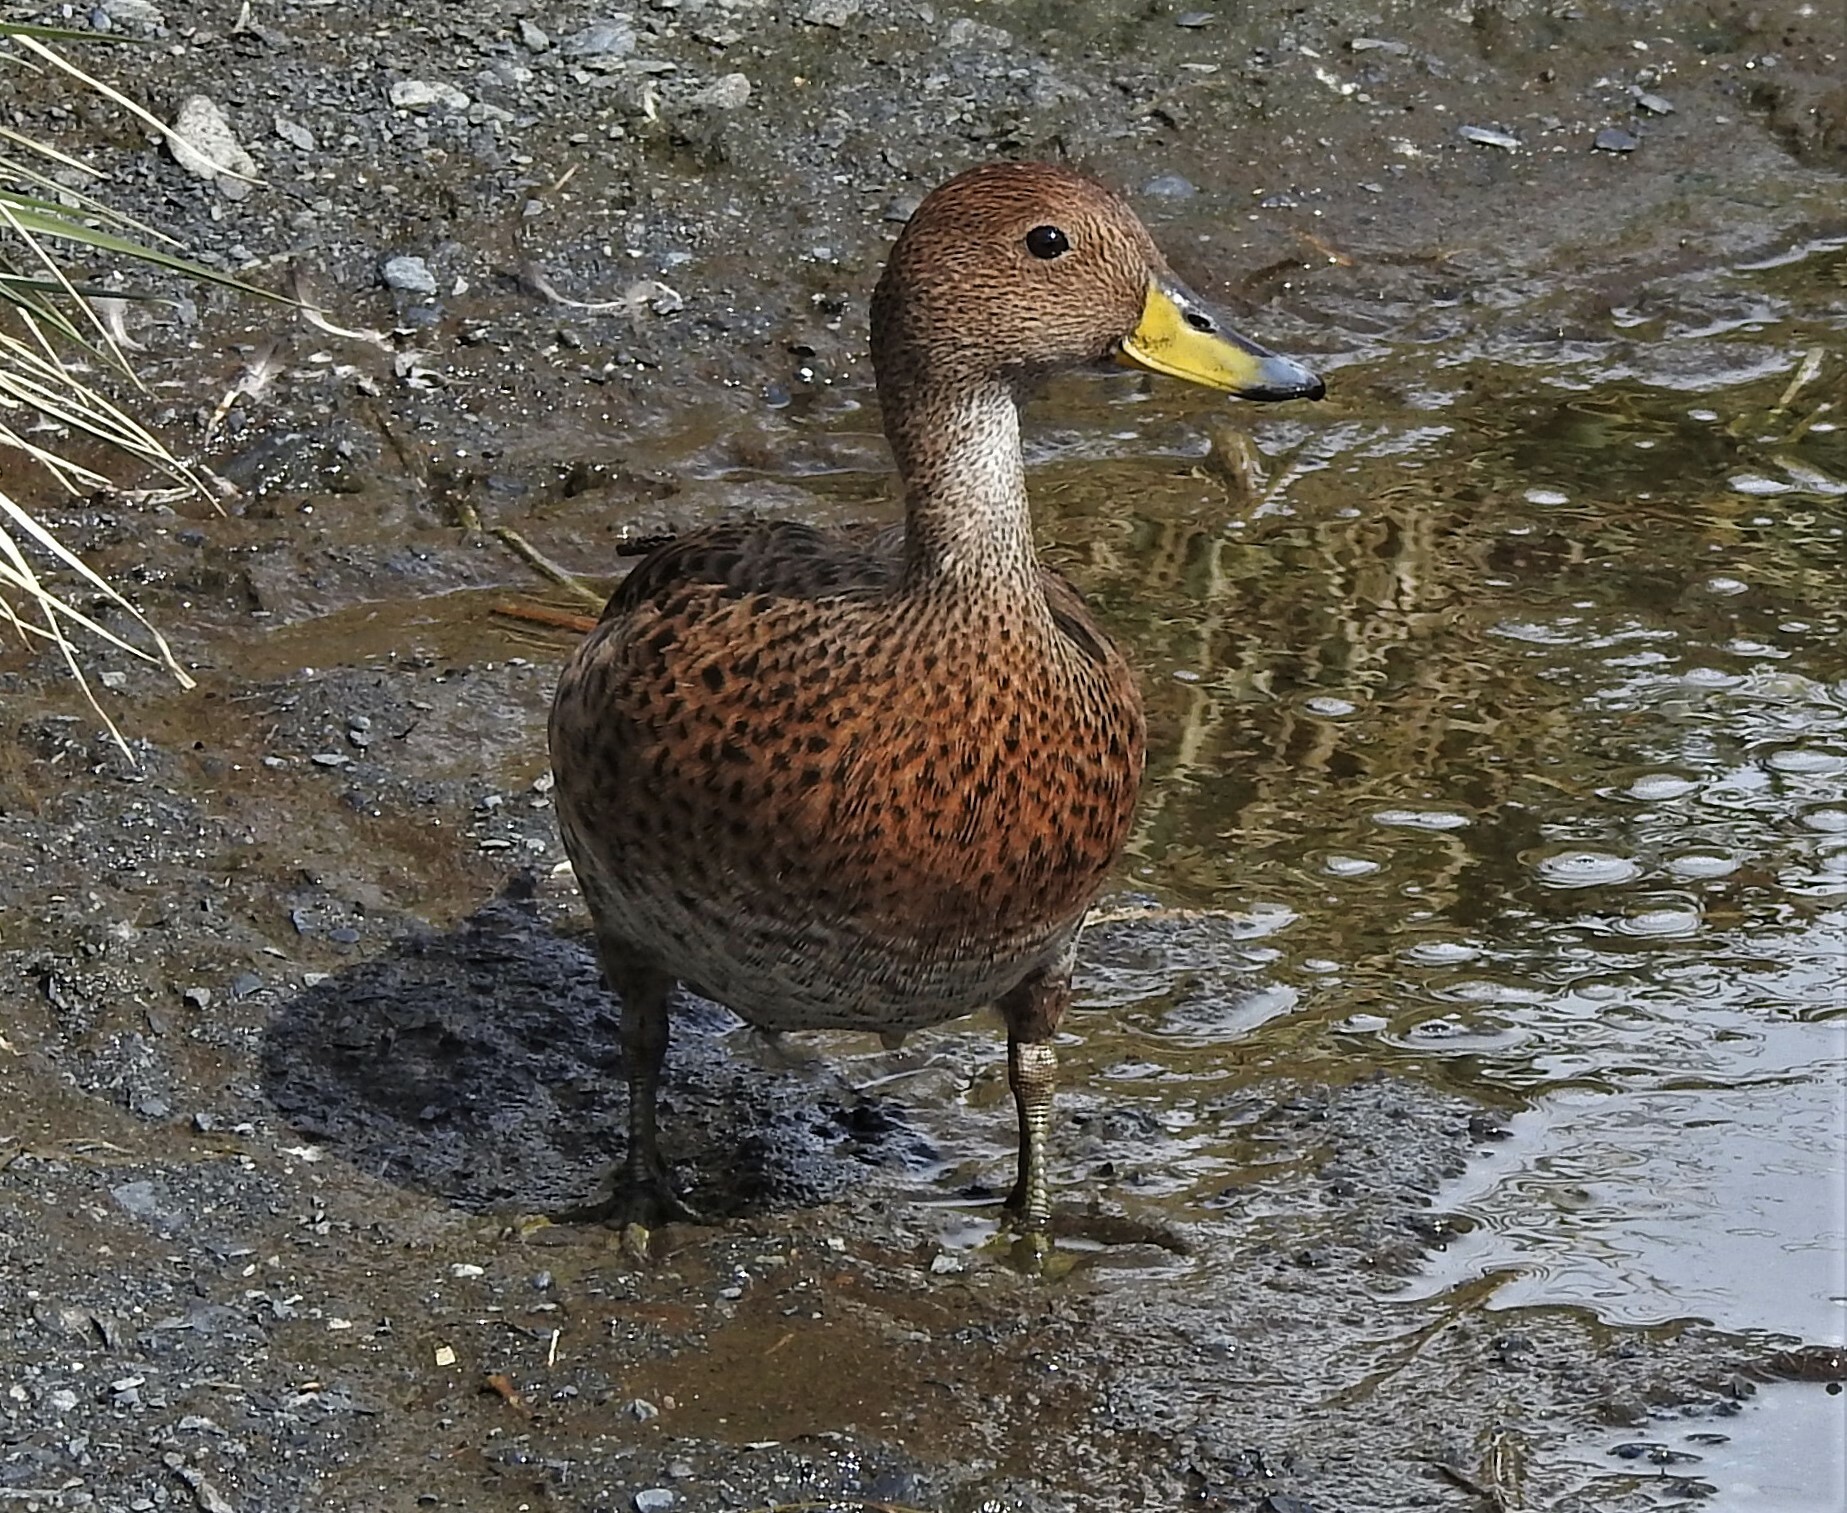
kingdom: Animalia
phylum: Chordata
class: Aves
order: Anseriformes
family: Anatidae
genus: Anas
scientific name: Anas georgica
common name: Yellow-billed pintail
